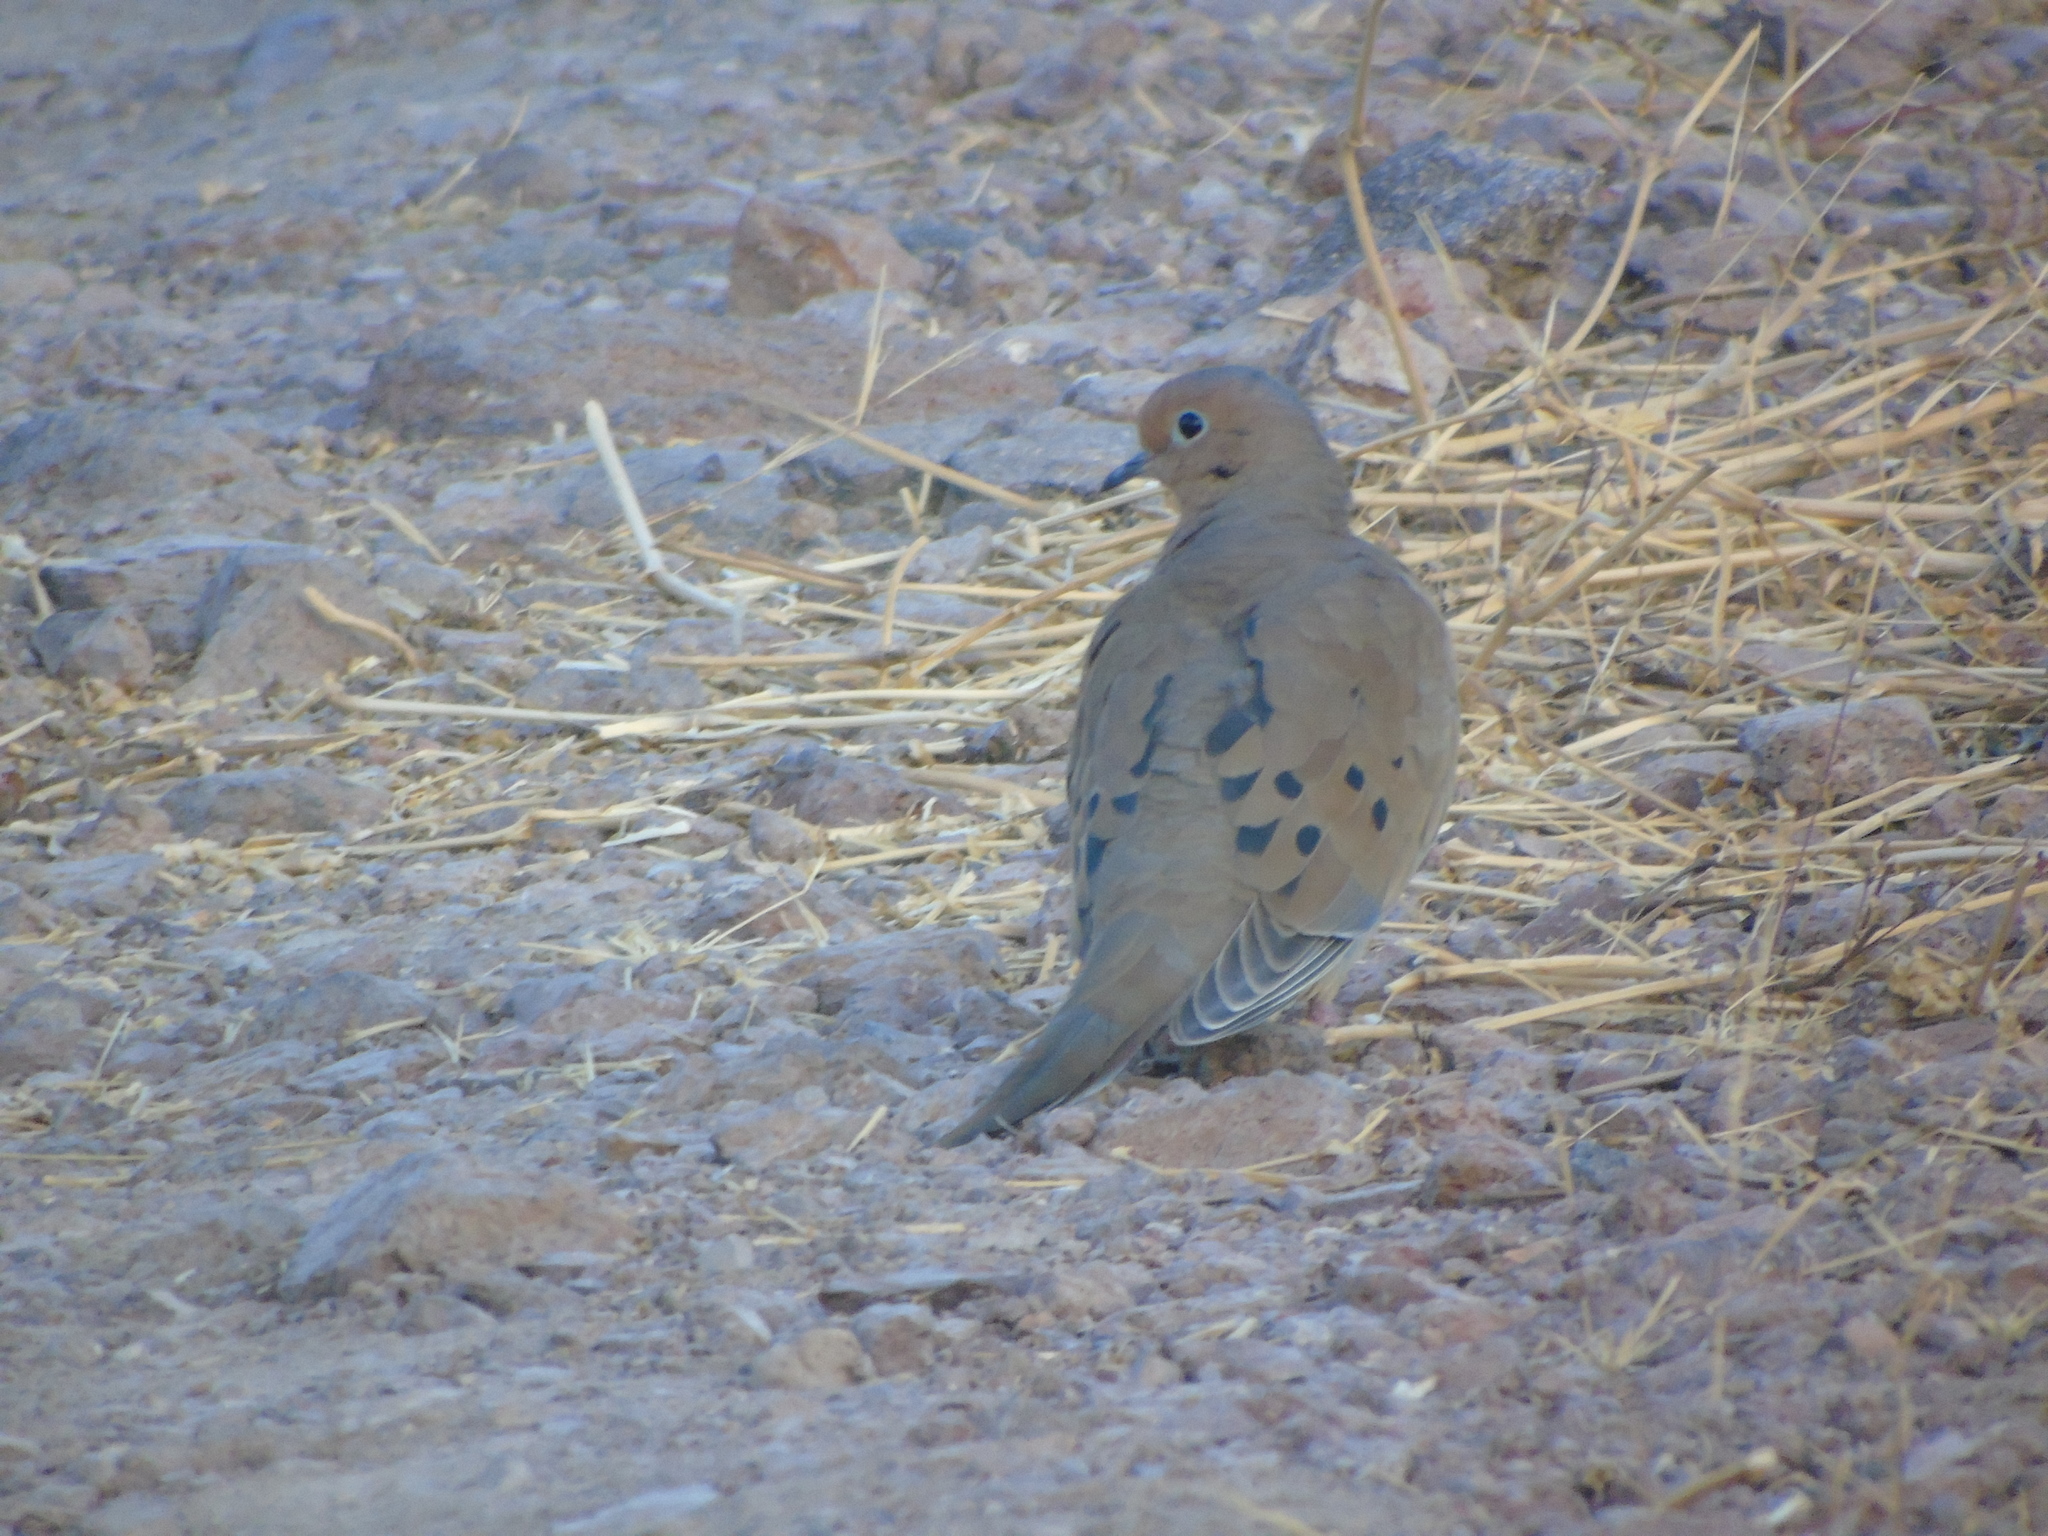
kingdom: Animalia
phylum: Chordata
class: Aves
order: Columbiformes
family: Columbidae
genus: Zenaida
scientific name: Zenaida macroura
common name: Mourning dove
